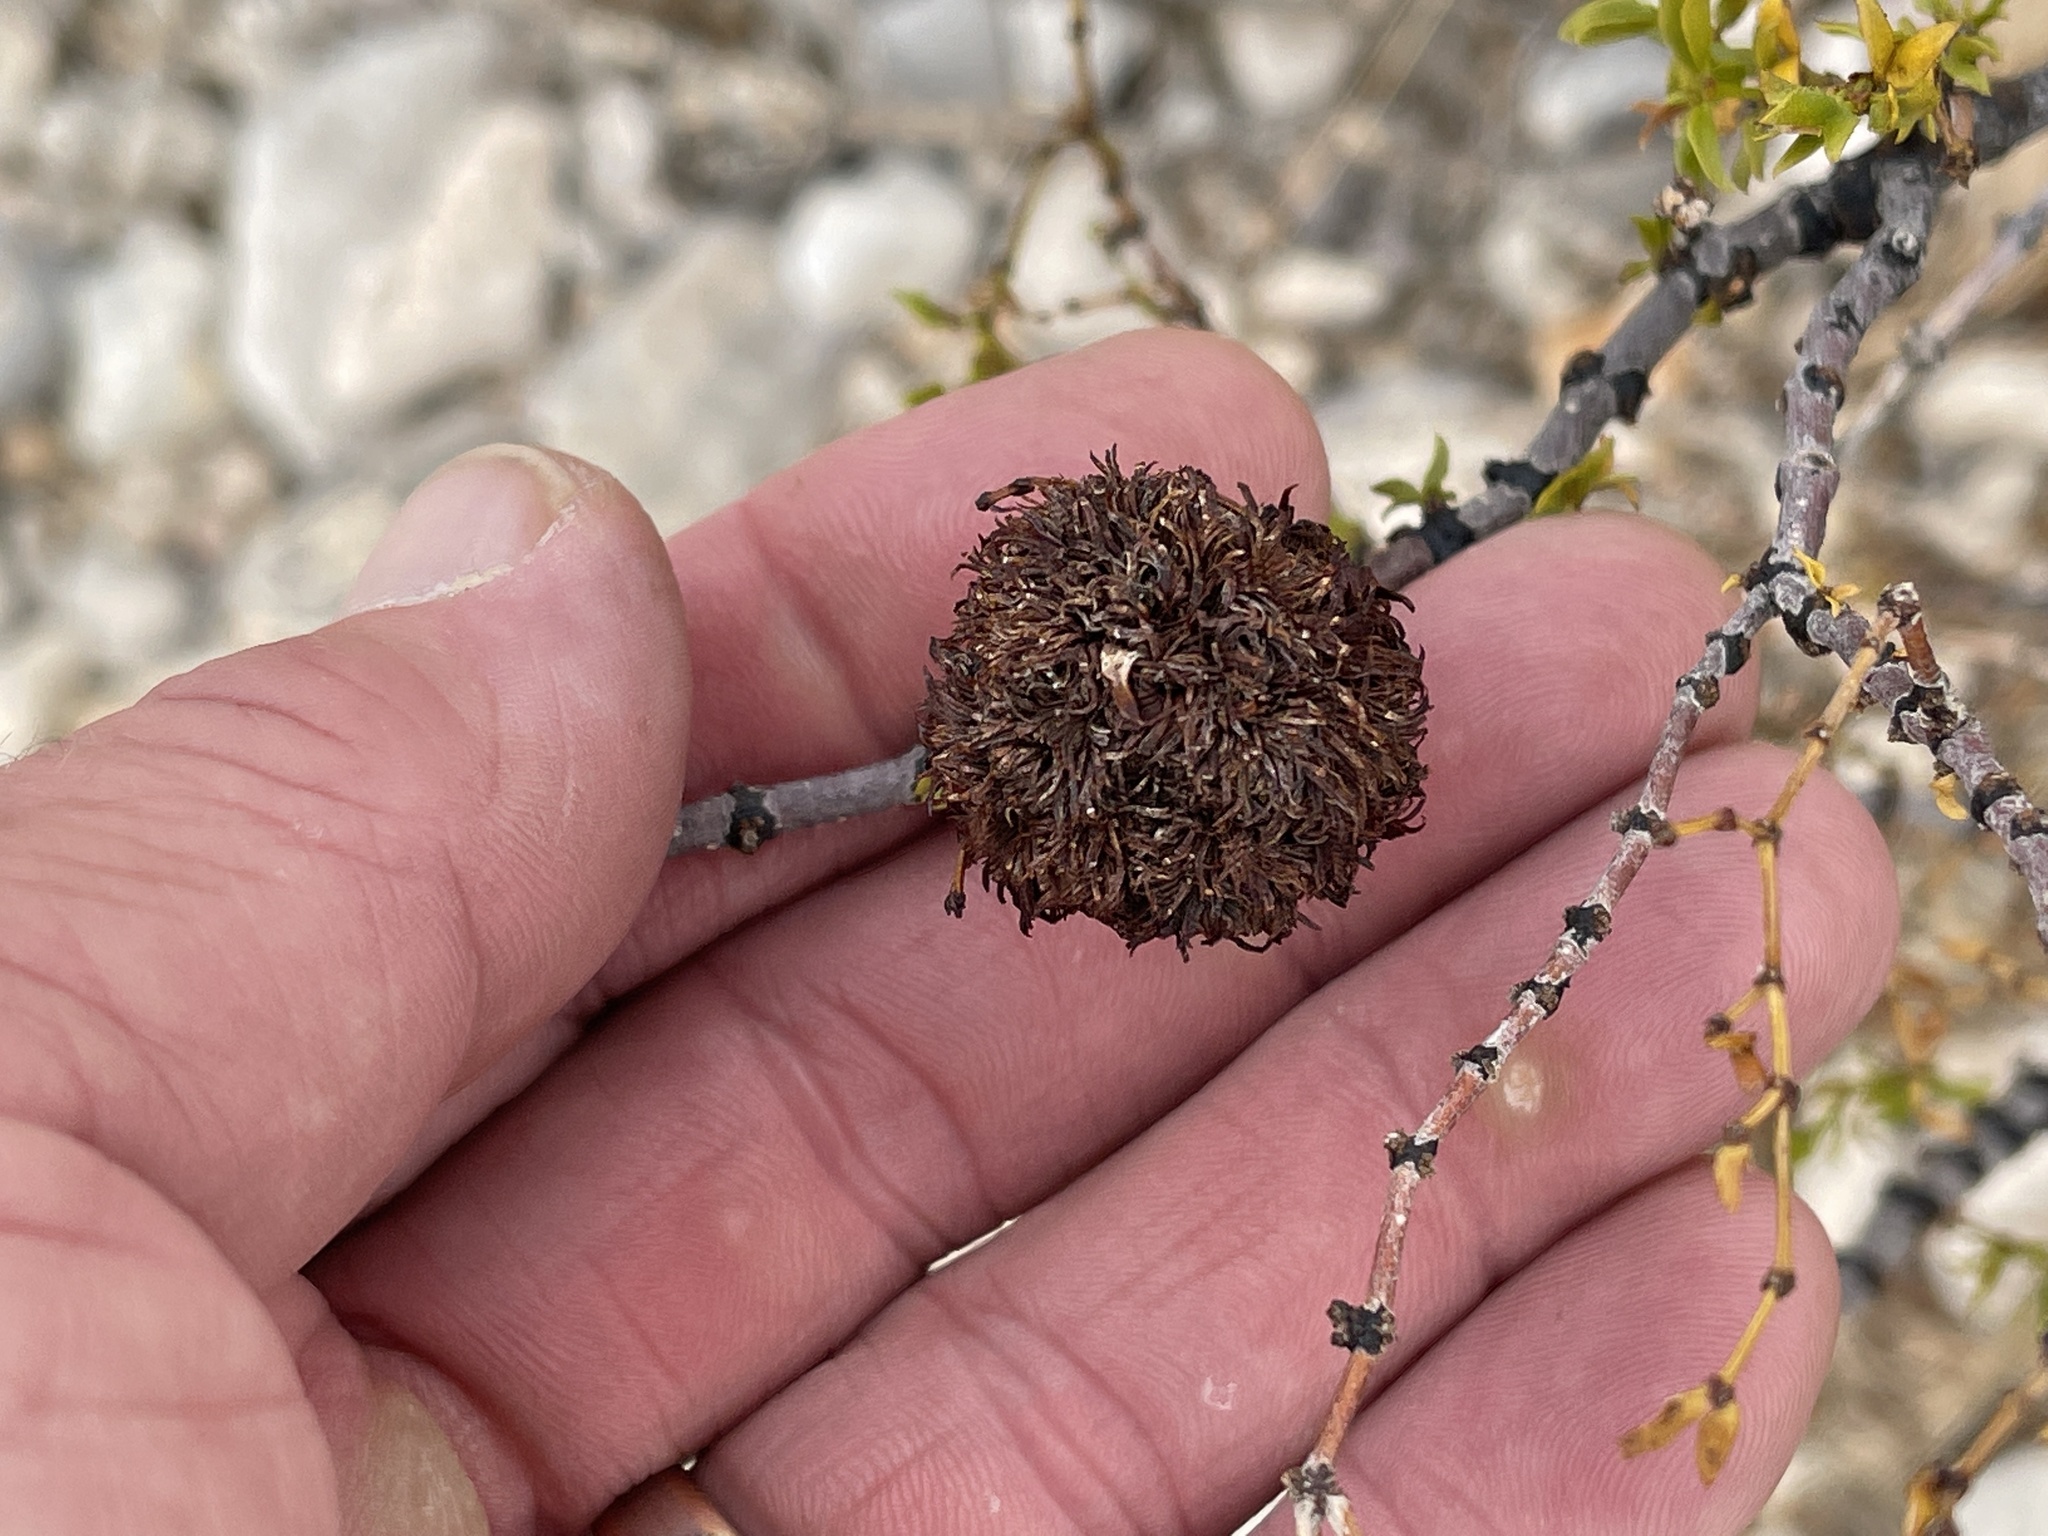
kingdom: Animalia
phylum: Arthropoda
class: Insecta
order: Diptera
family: Cecidomyiidae
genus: Asphondylia
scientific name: Asphondylia auripila
